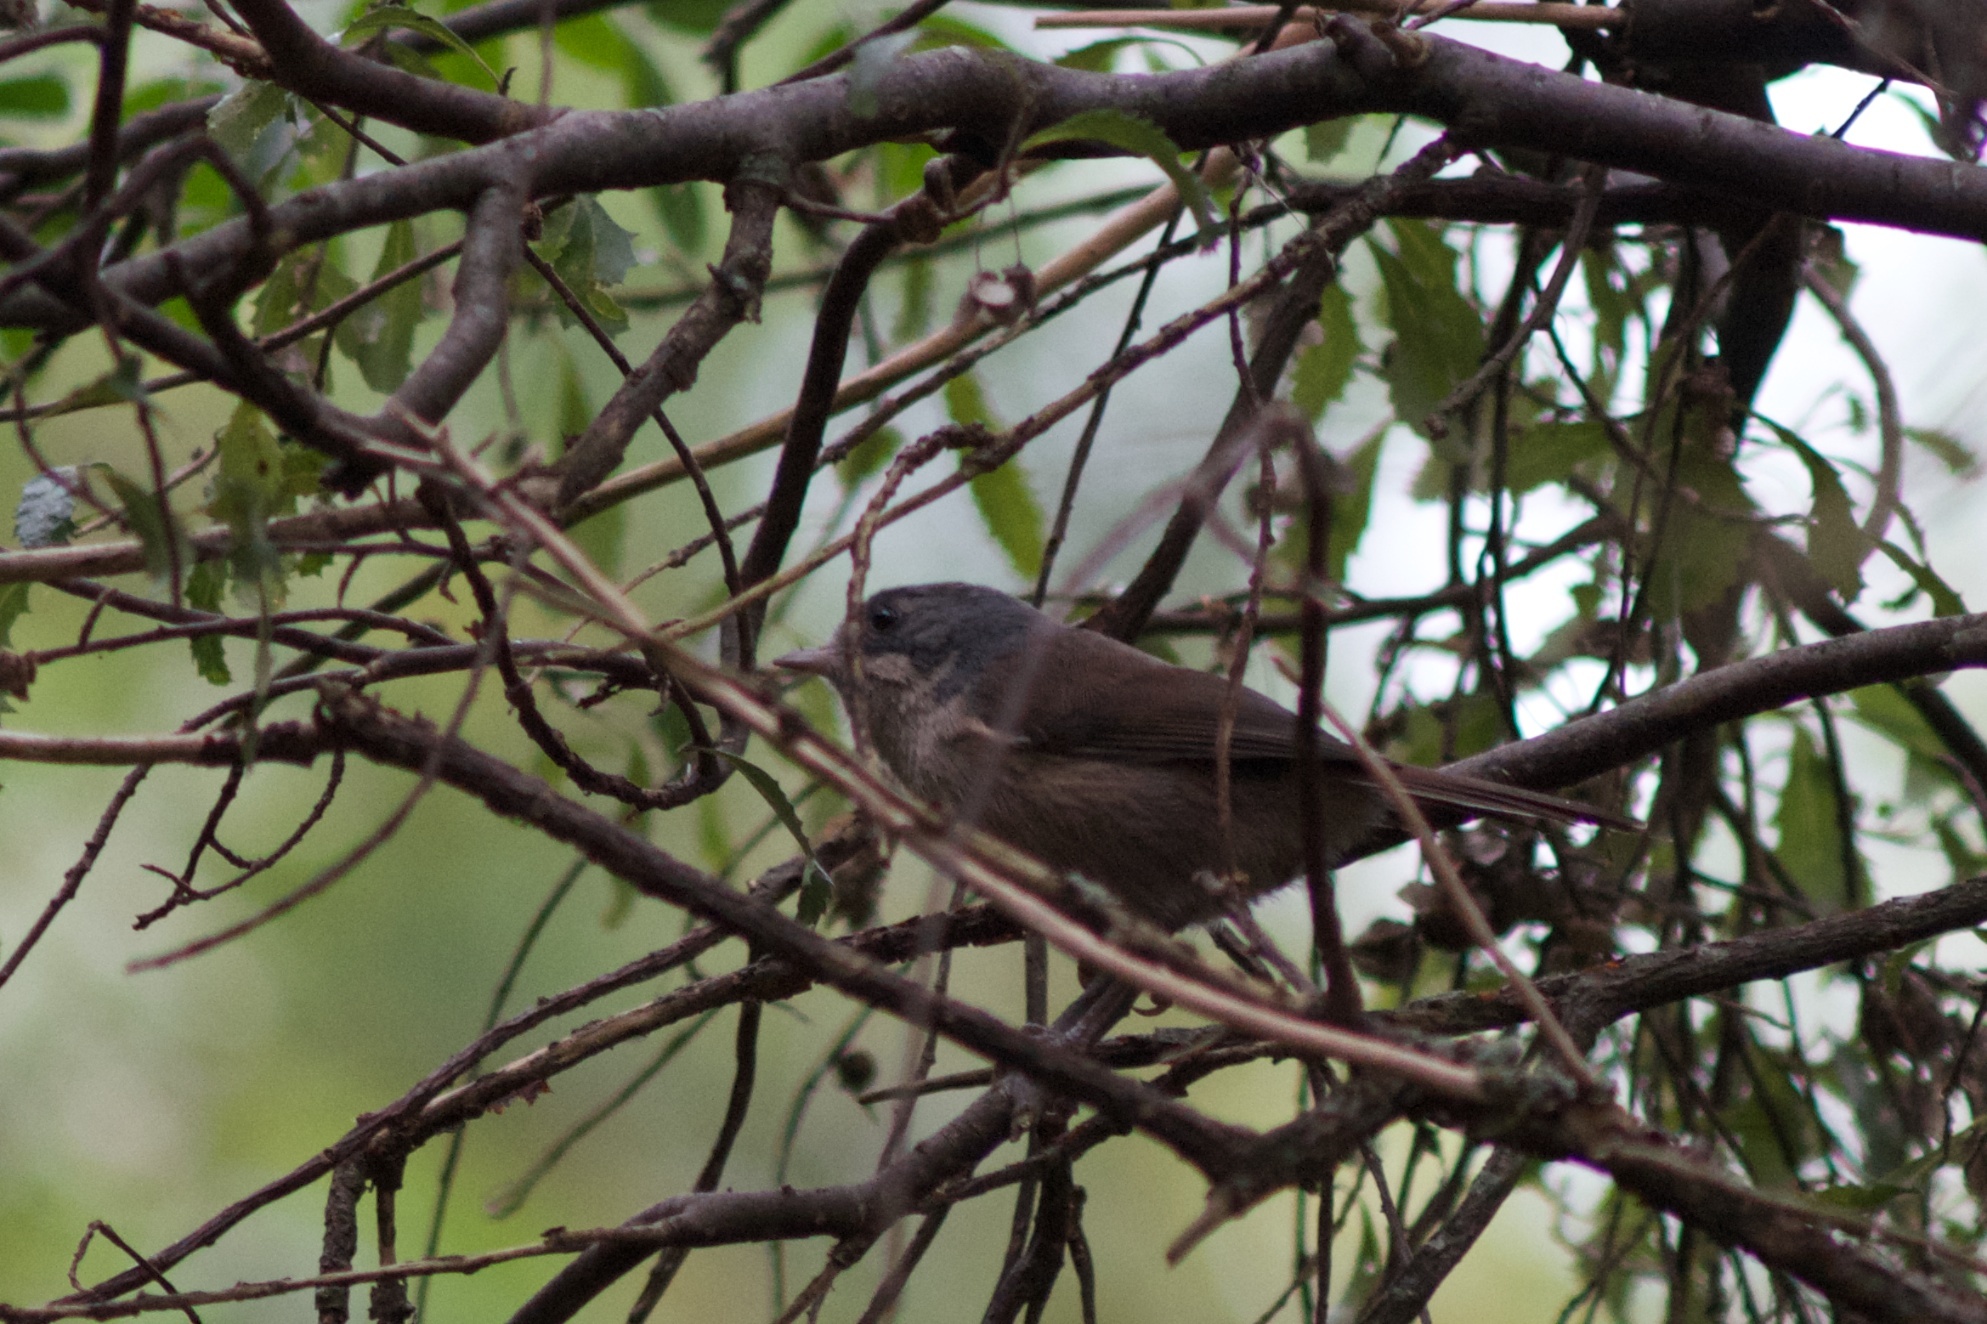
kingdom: Animalia
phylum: Chordata
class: Aves
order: Passeriformes
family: Acanthizidae
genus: Finschia
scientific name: Finschia novaeseelandiae
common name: Pipipi
